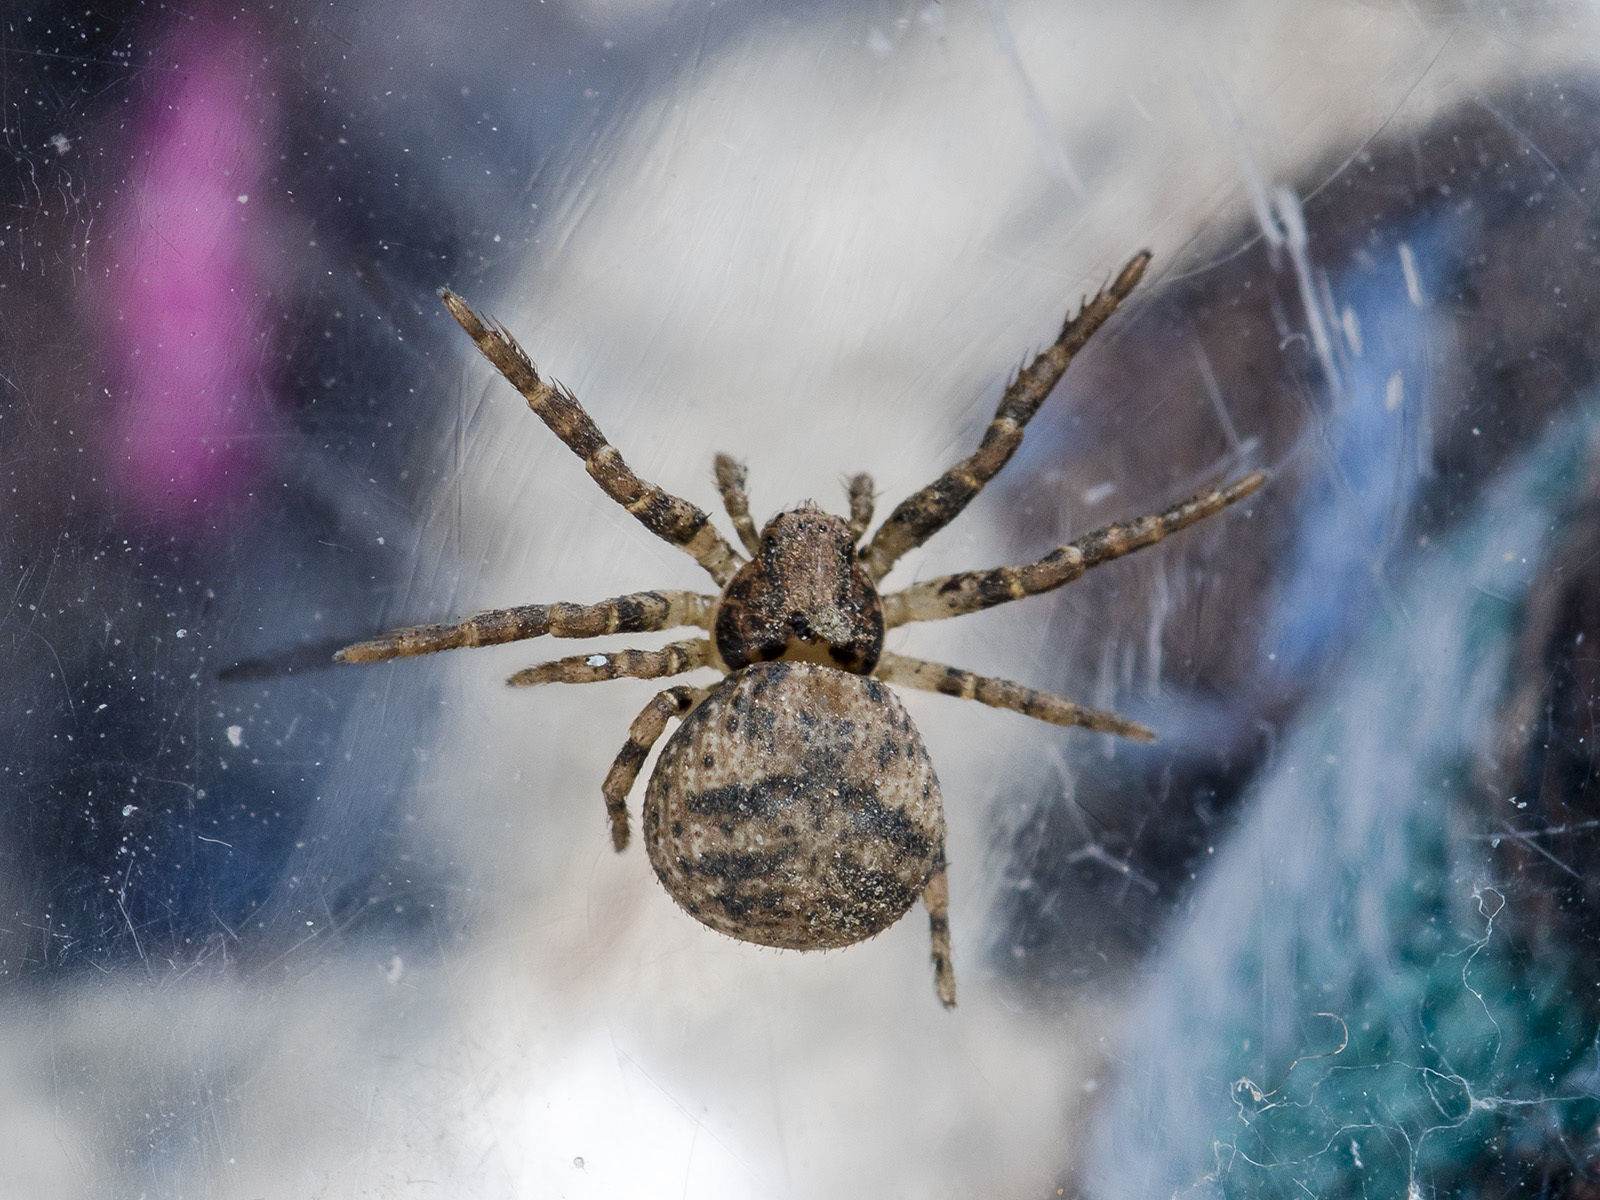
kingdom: Animalia
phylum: Arthropoda
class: Arachnida
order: Araneae
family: Thomisidae
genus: Ozyptila
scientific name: Ozyptila praticola
